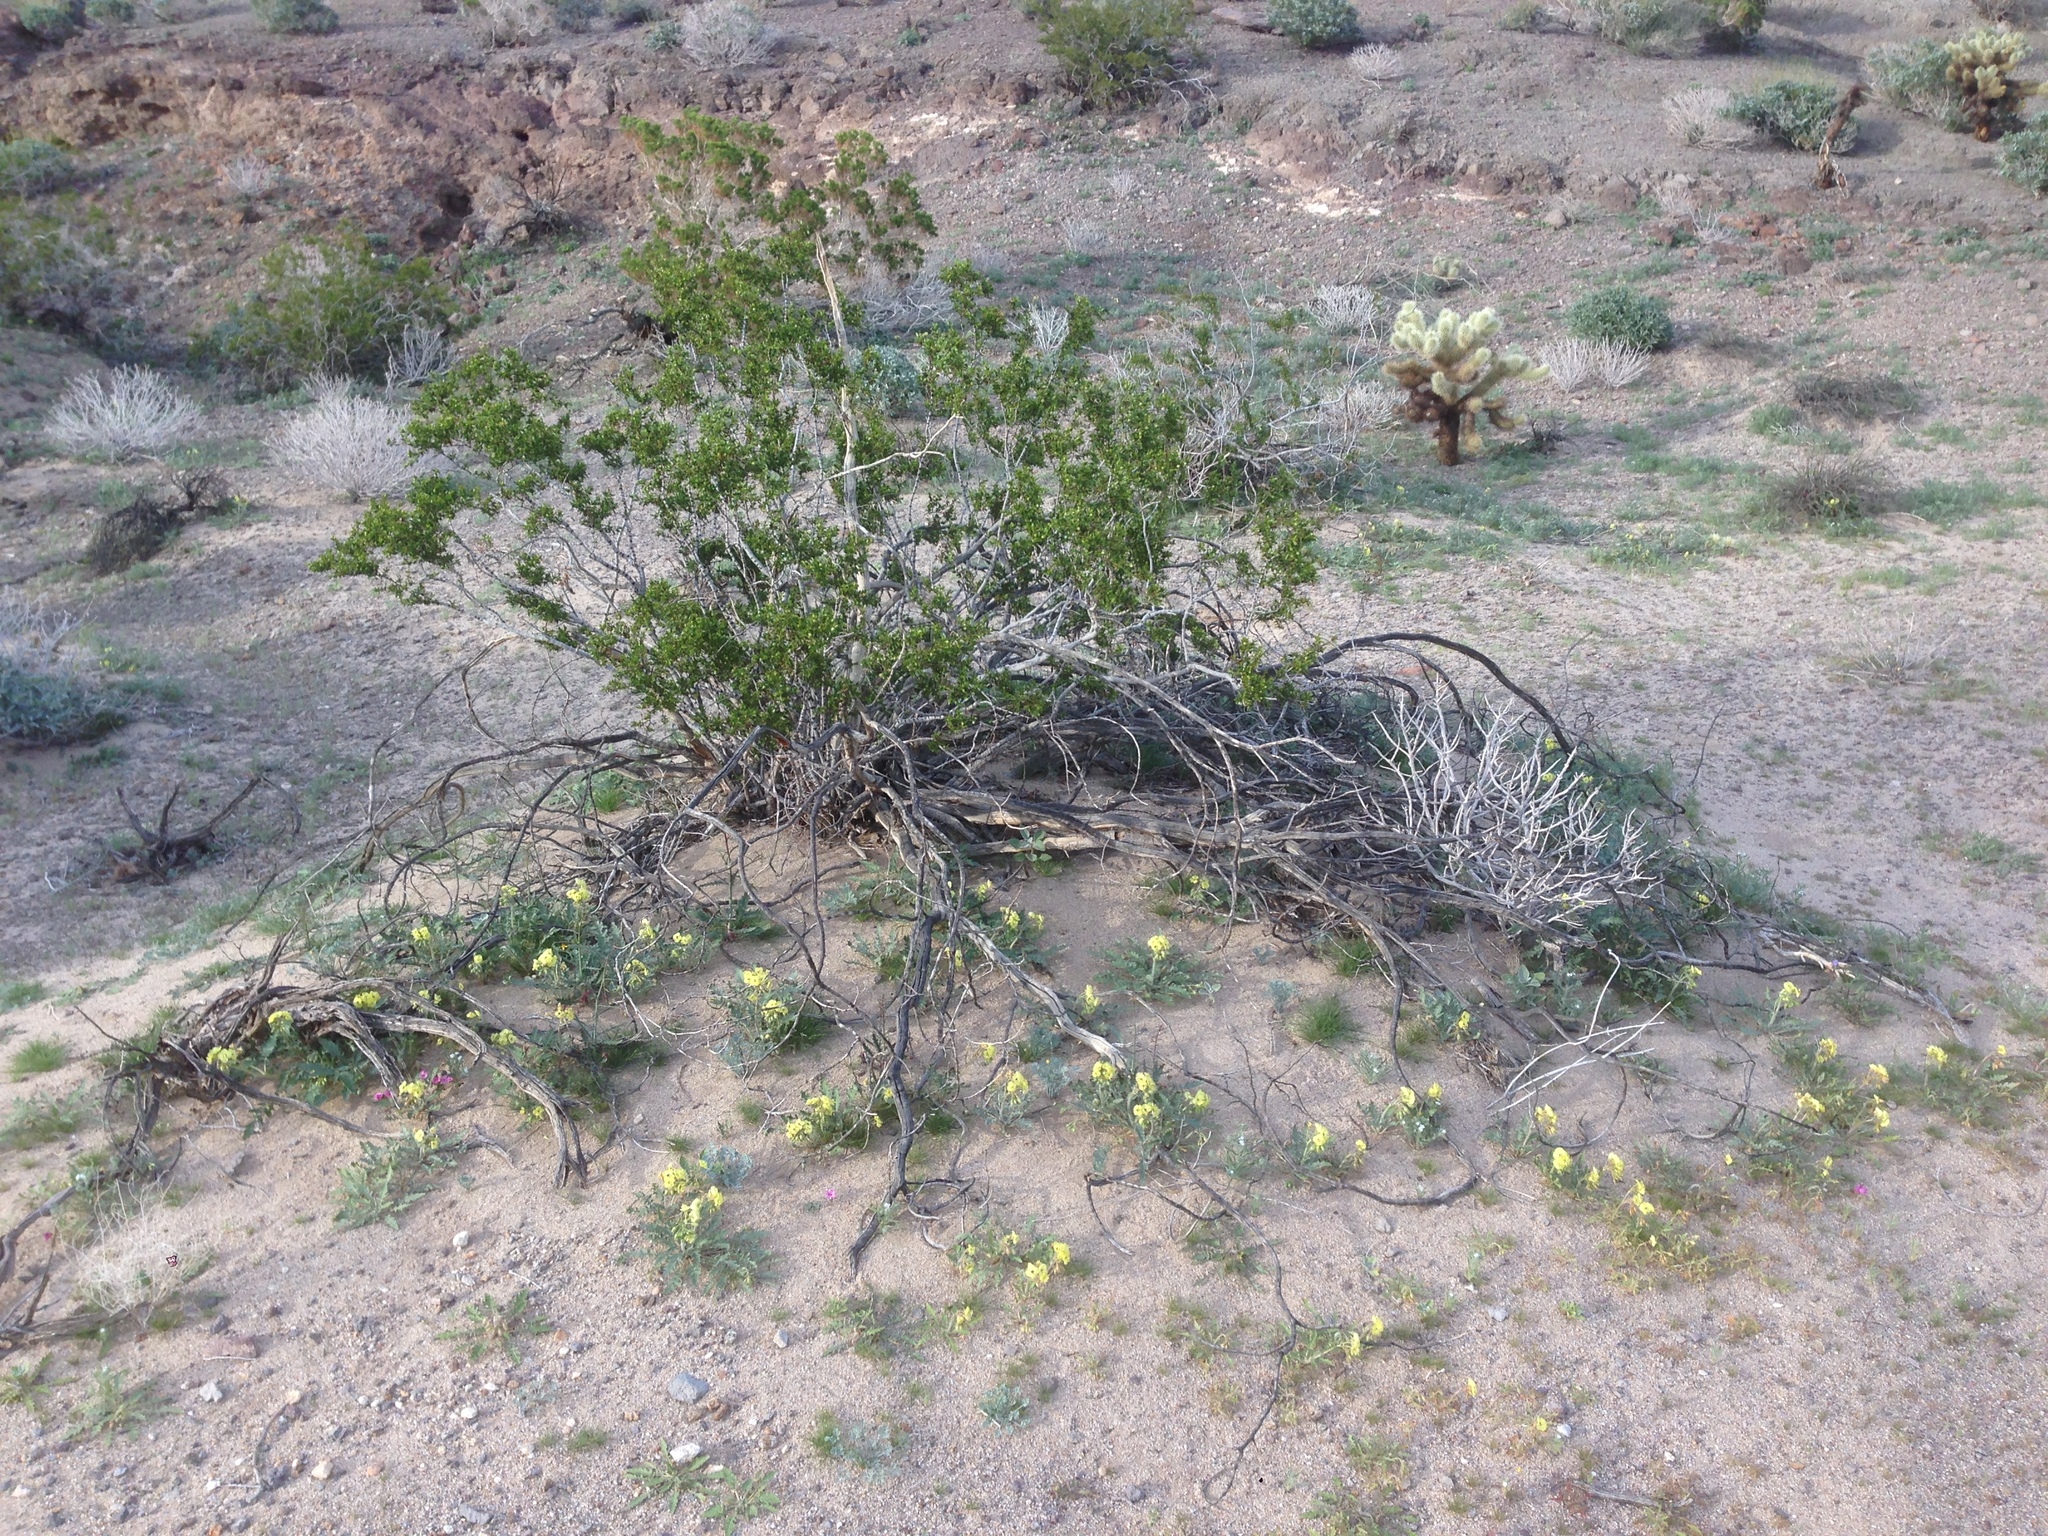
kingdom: Plantae
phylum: Tracheophyta
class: Magnoliopsida
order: Zygophyllales
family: Zygophyllaceae
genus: Larrea
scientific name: Larrea tridentata
